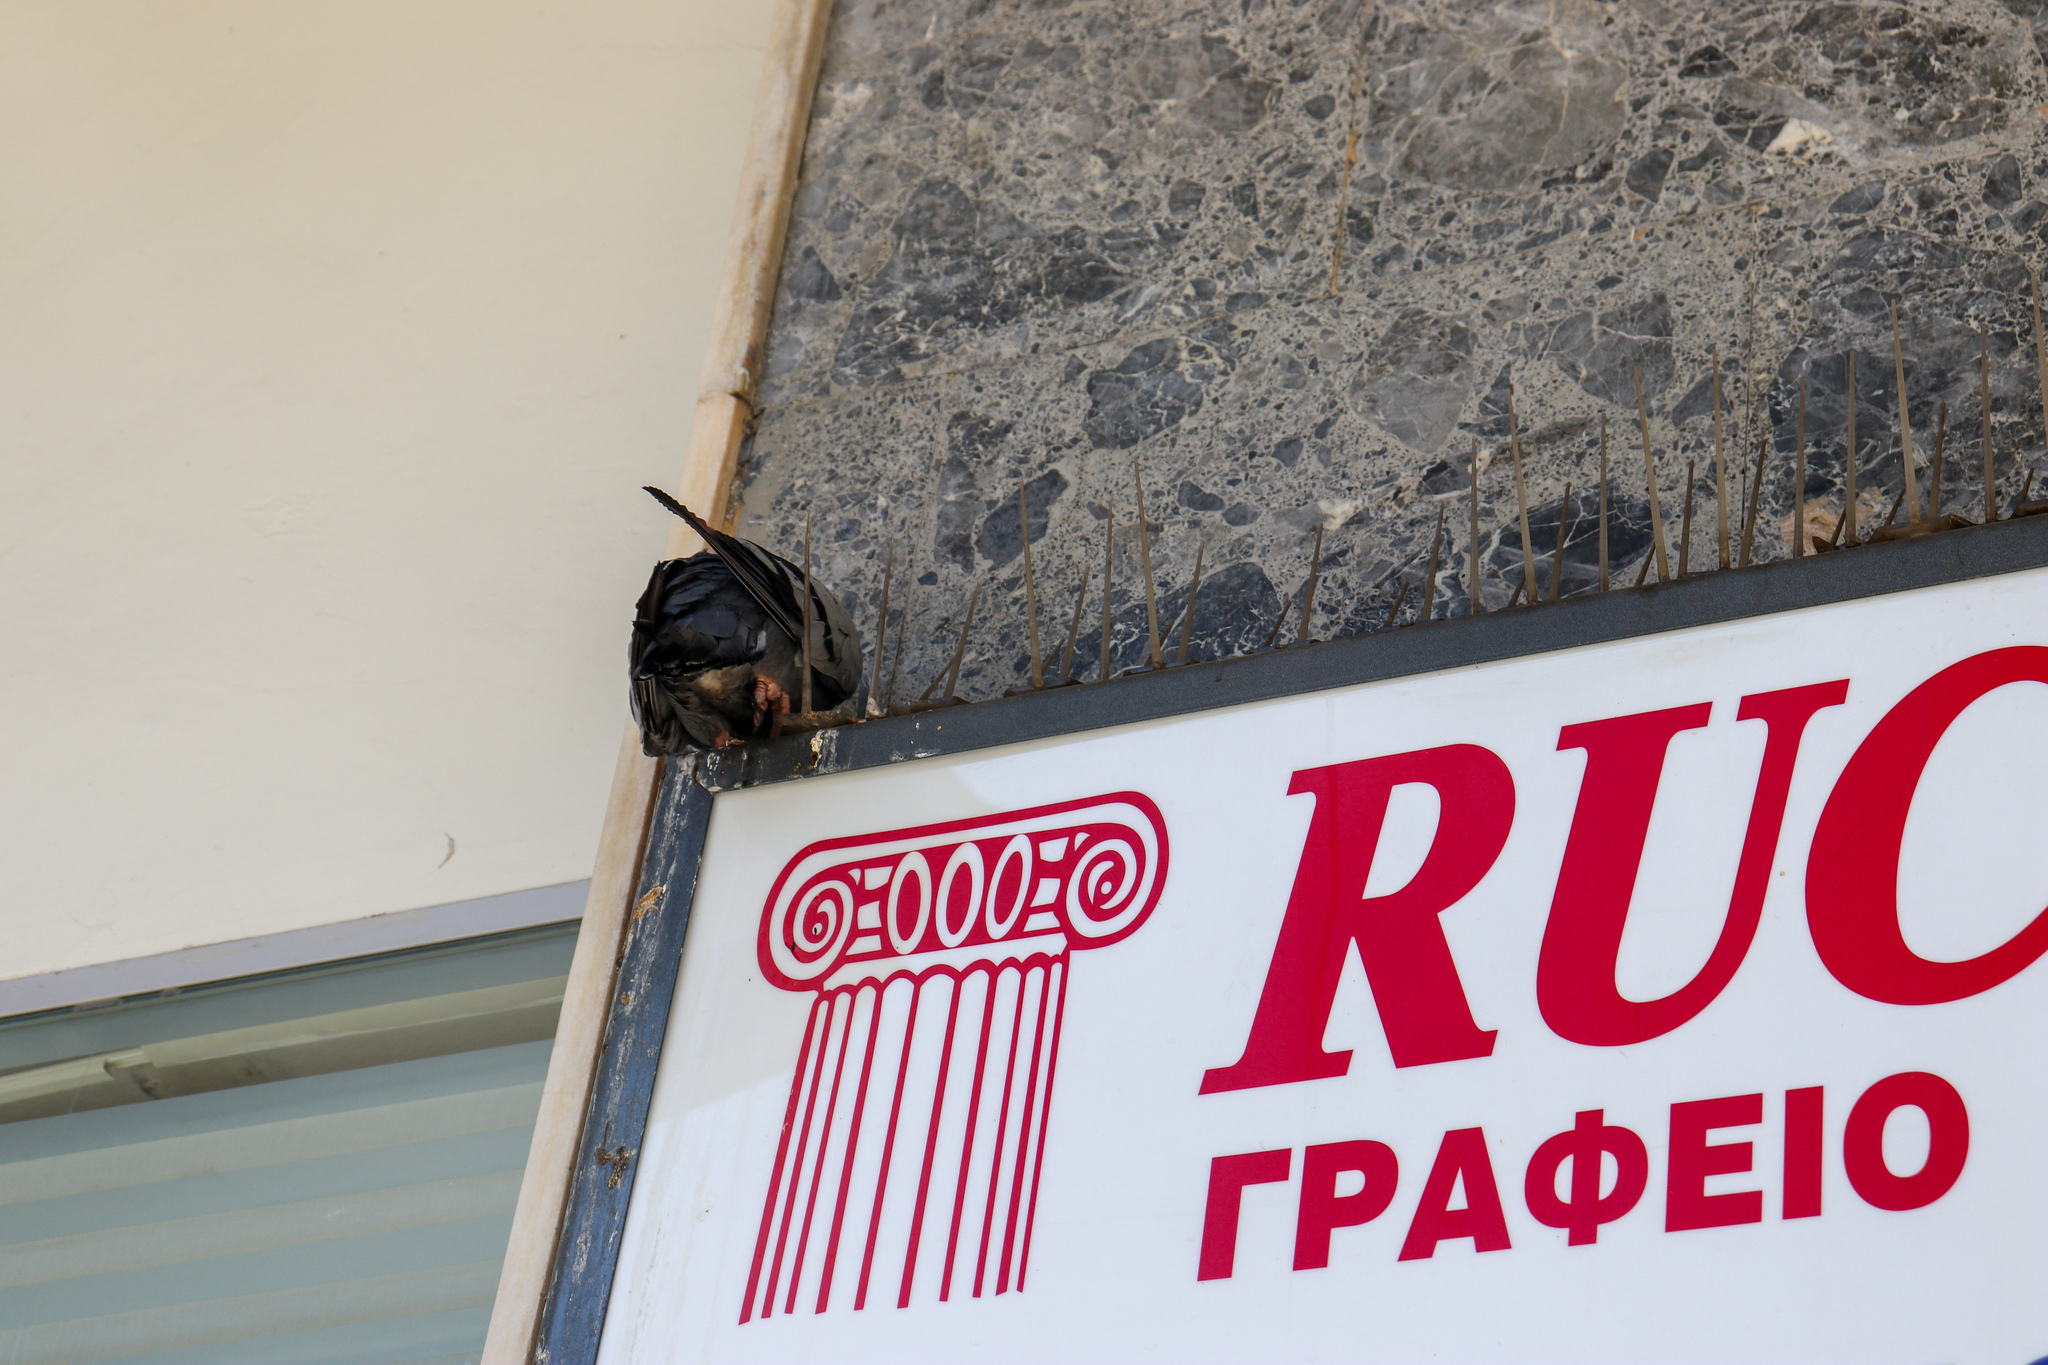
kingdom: Animalia
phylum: Chordata
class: Aves
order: Columbiformes
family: Columbidae
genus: Columba
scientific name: Columba livia
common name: Rock pigeon
